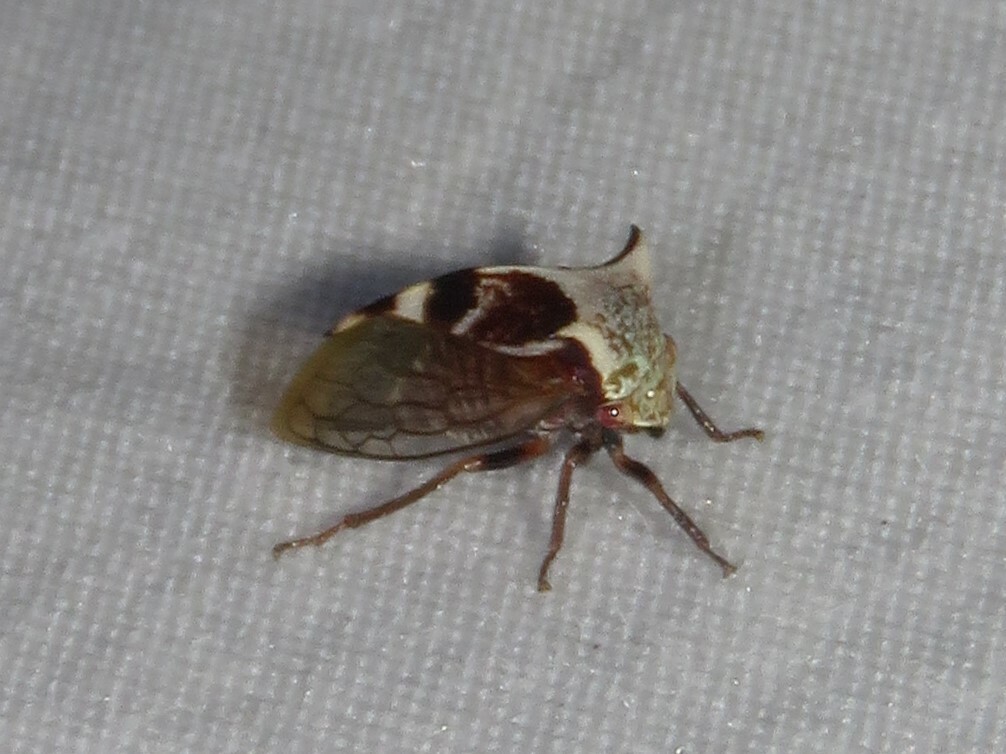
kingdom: Animalia
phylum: Arthropoda
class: Insecta
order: Hemiptera
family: Membracidae
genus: Stictocephala
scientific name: Stictocephala diceros
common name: Two-horned treehopper
